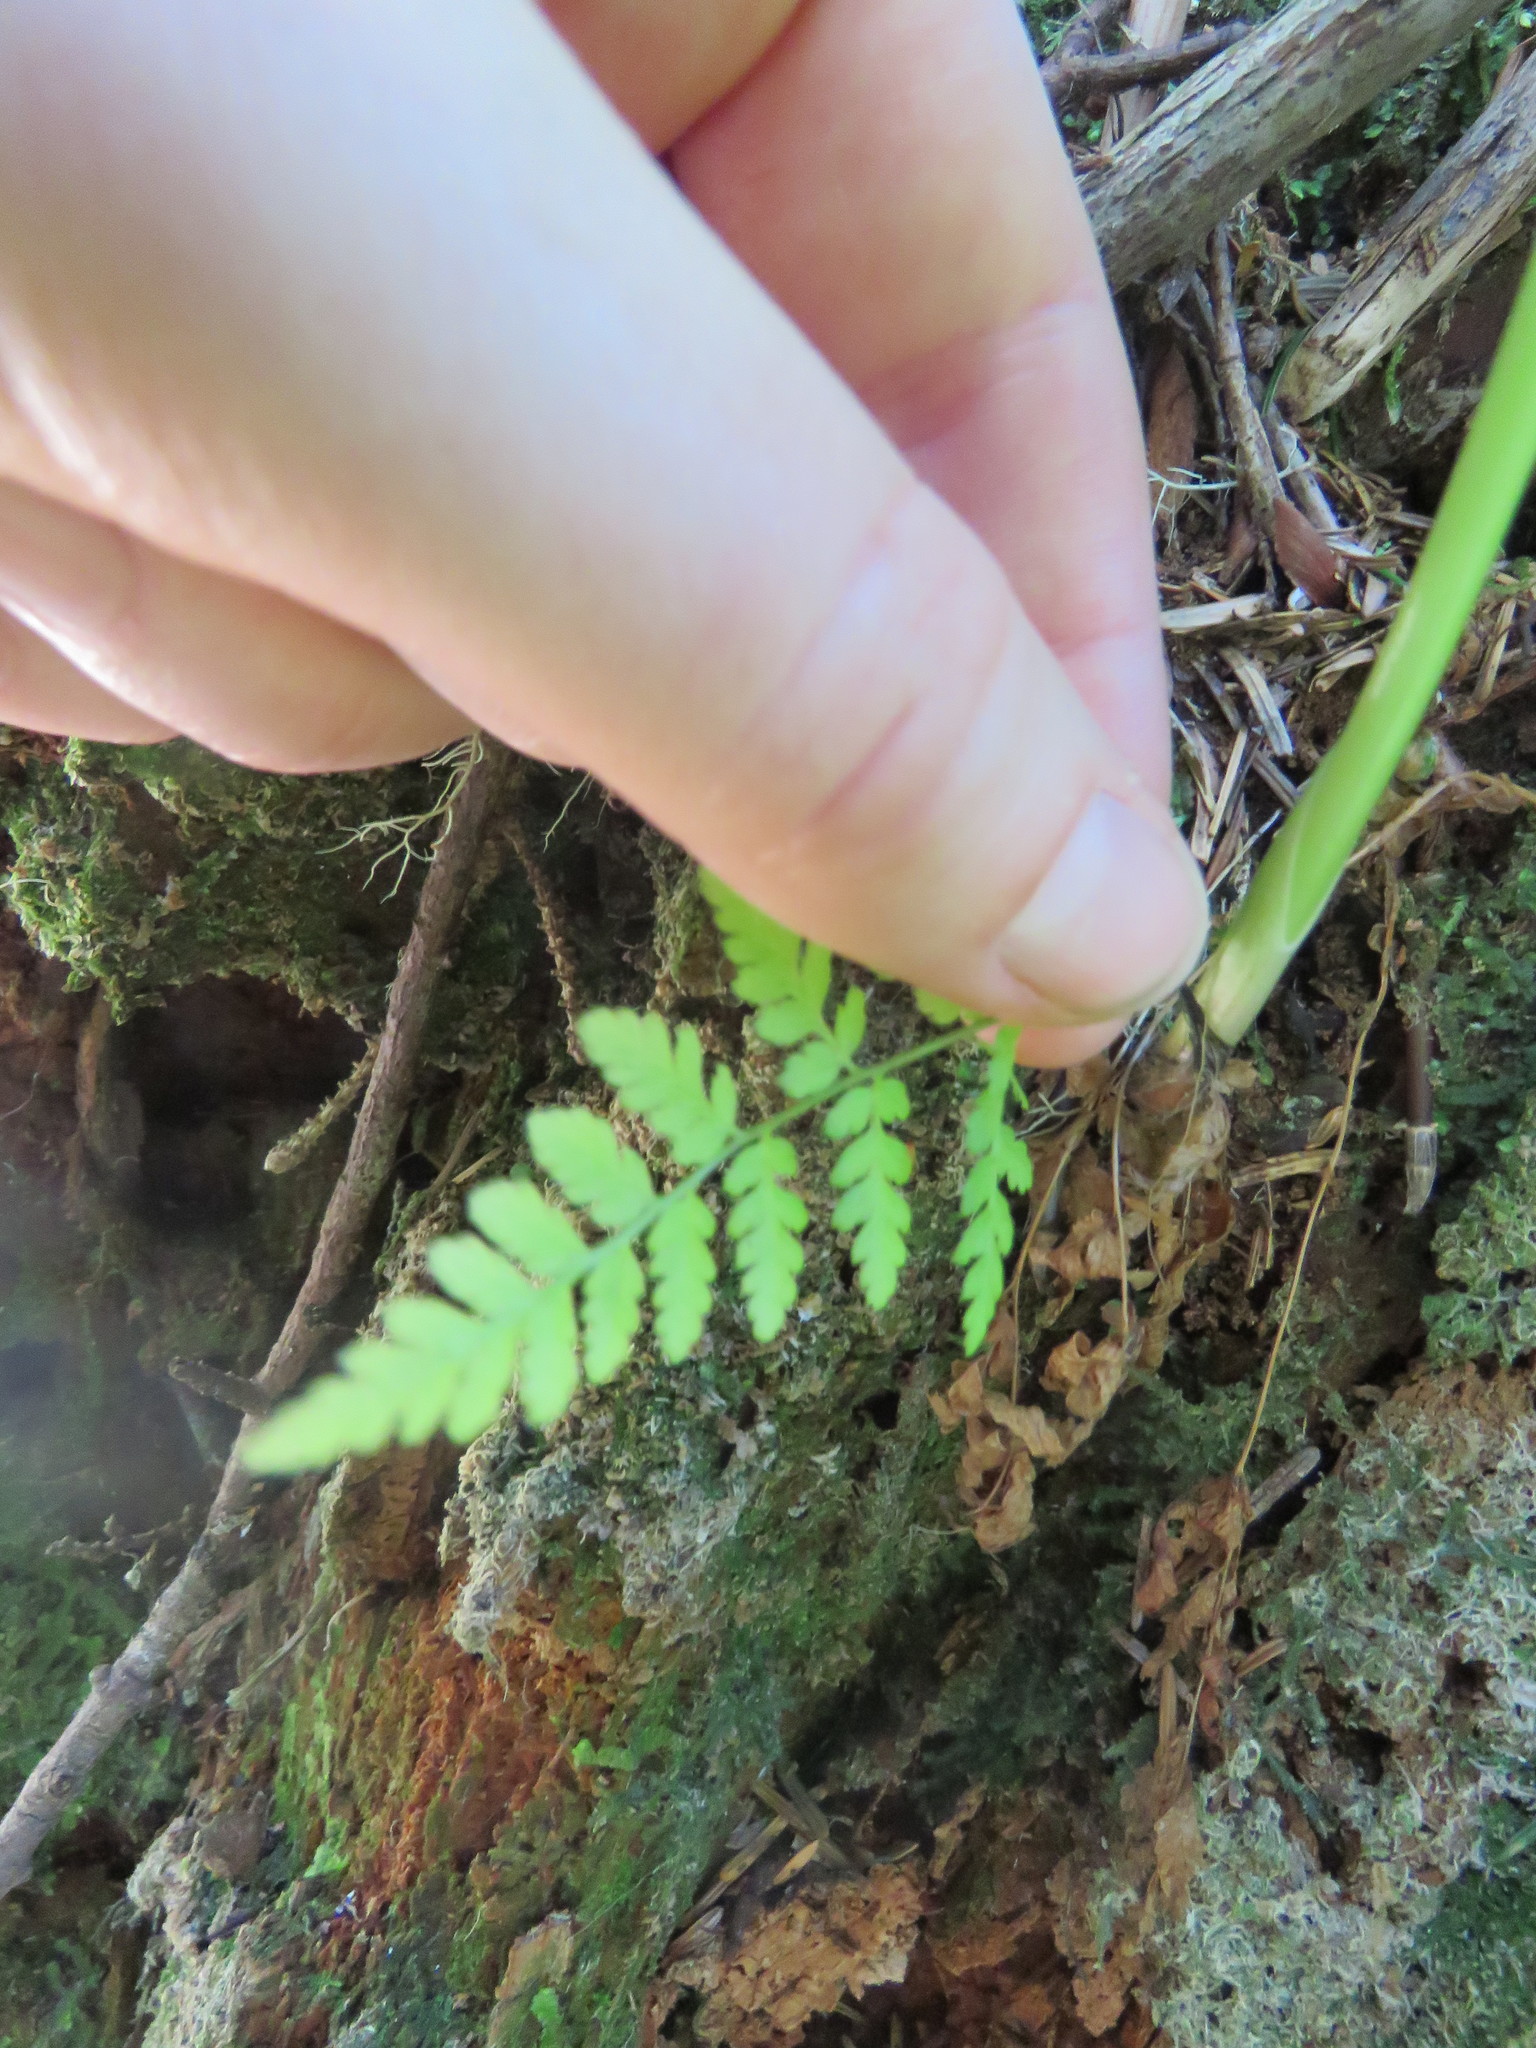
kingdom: Plantae
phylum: Tracheophyta
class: Polypodiopsida
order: Polypodiales
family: Dryopteridaceae
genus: Dryopteris
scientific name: Dryopteris expansa
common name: Northern buckler fern
